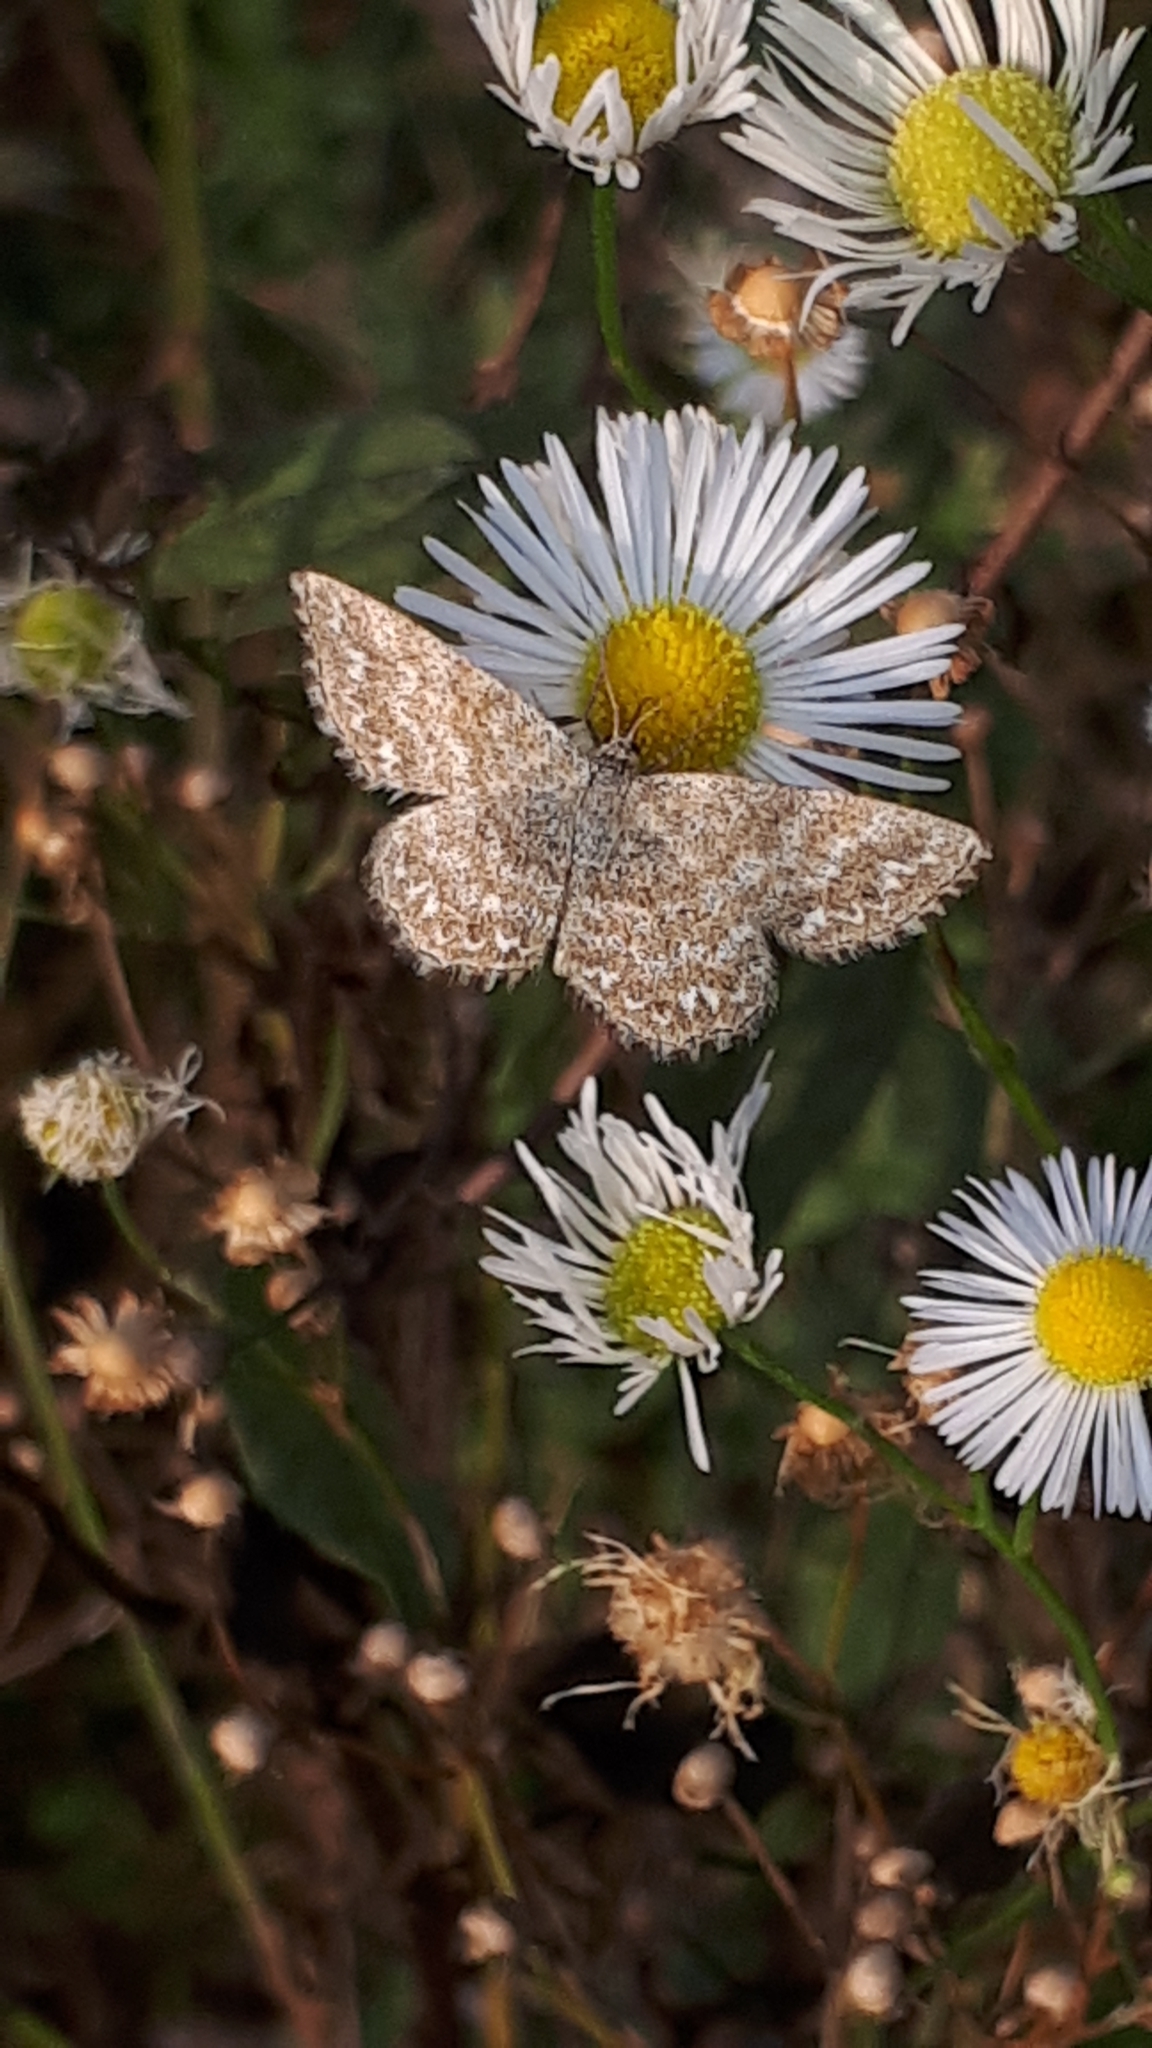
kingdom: Animalia
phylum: Arthropoda
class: Insecta
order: Lepidoptera
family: Geometridae
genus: Scopula
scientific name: Scopula immorata
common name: Lewes wave
